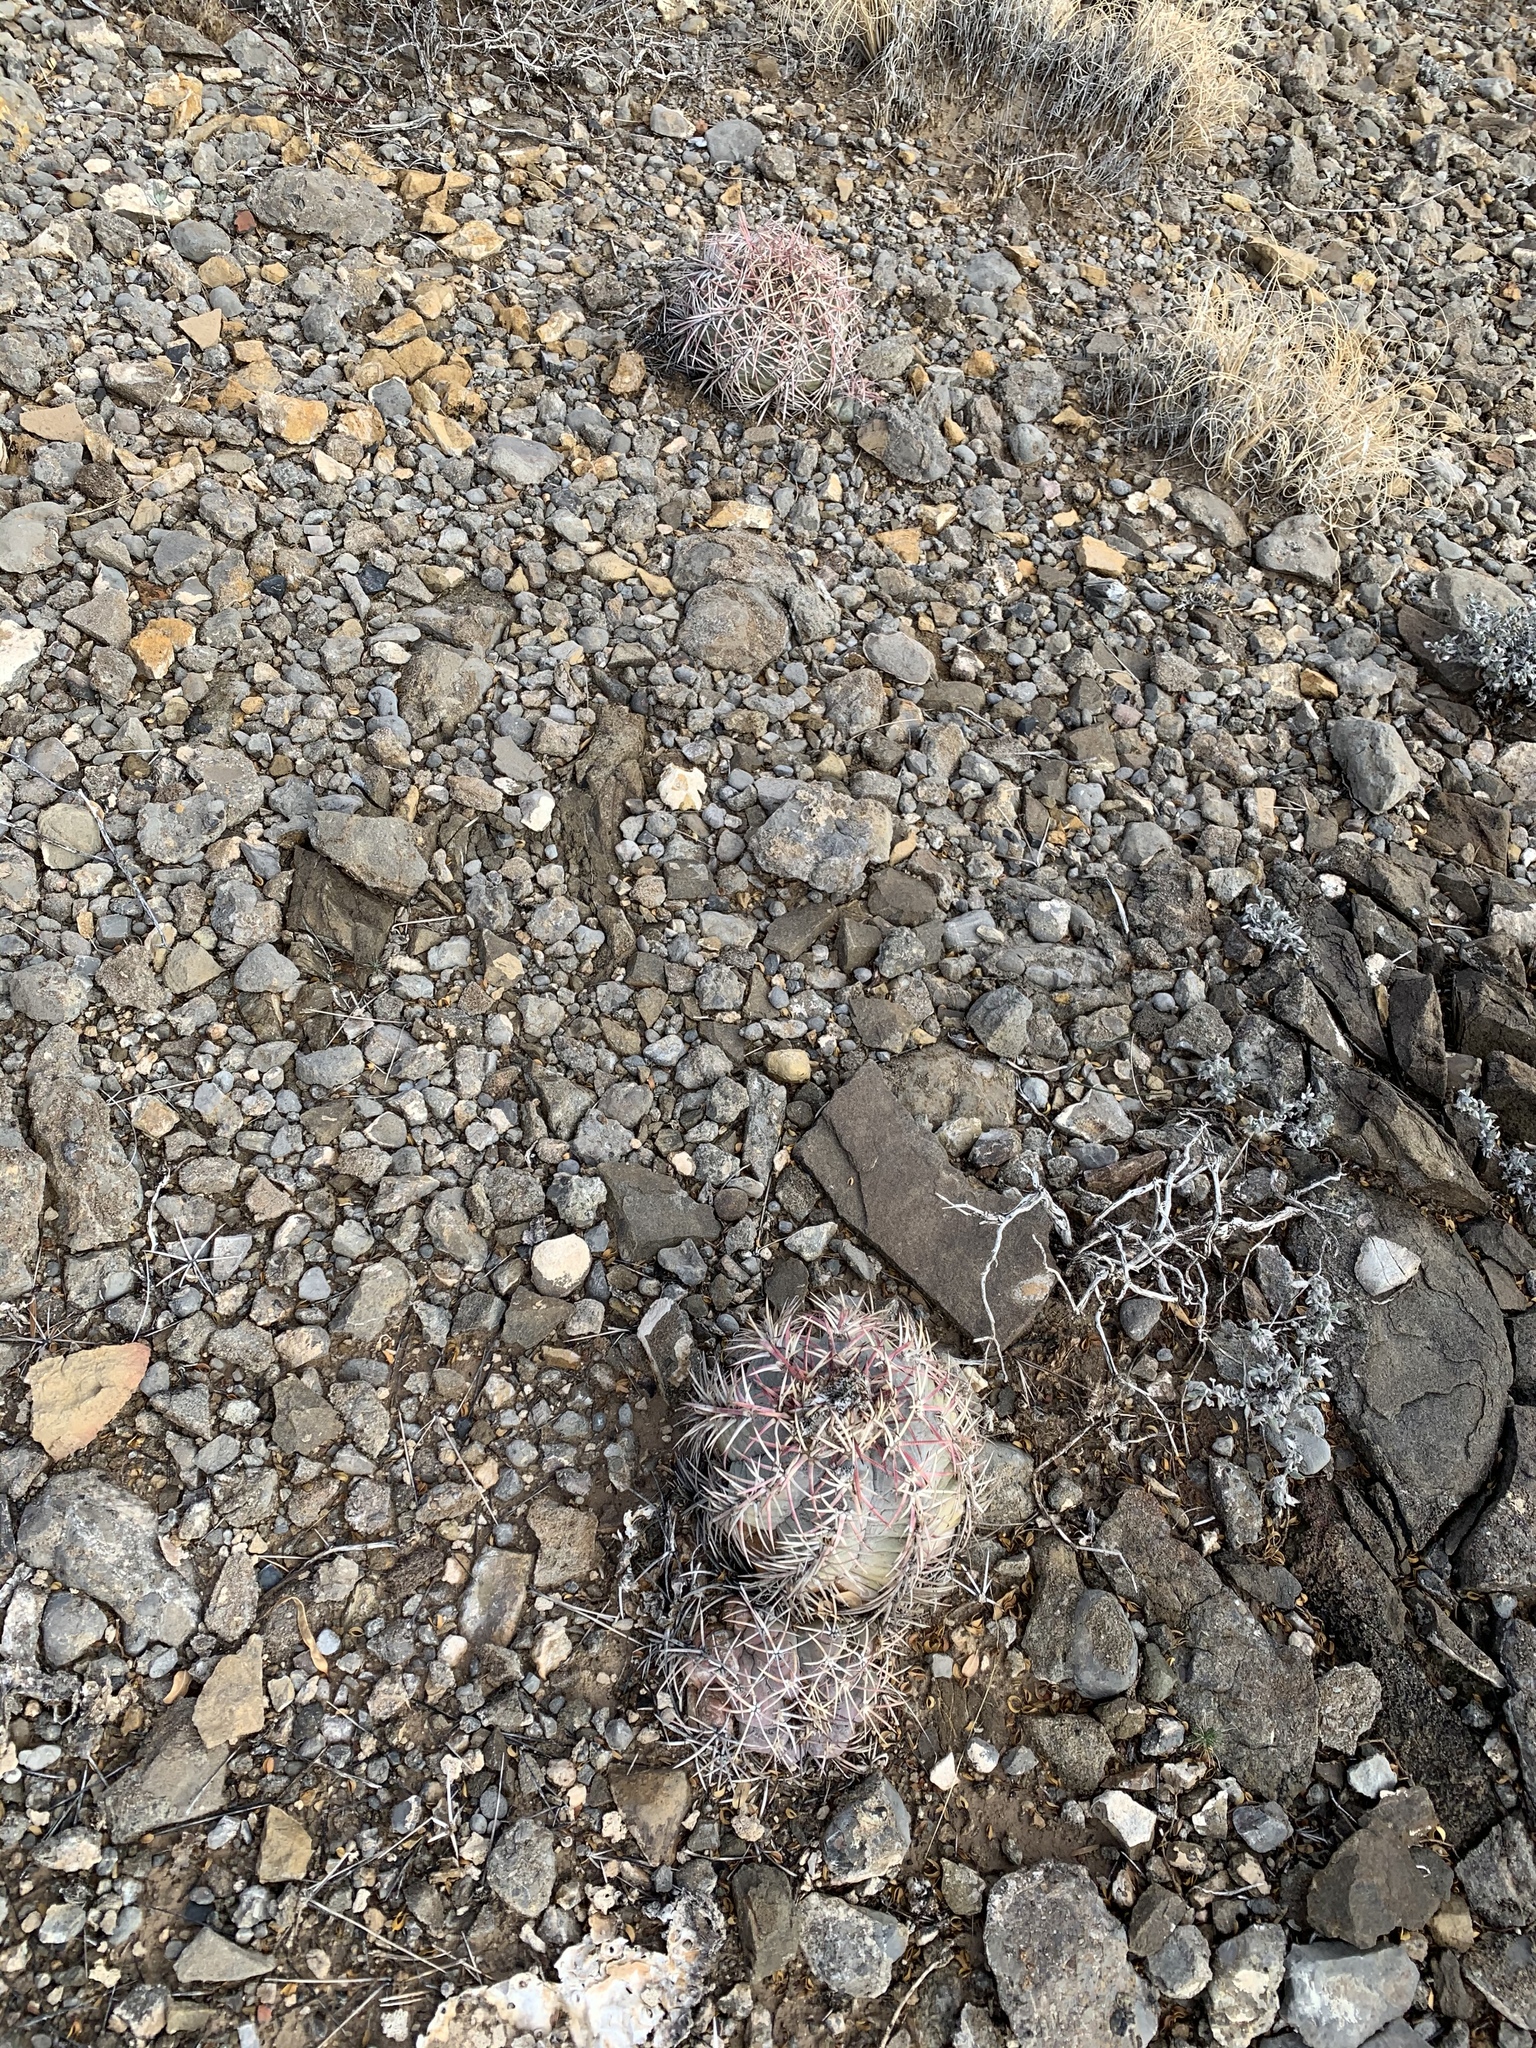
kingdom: Plantae
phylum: Tracheophyta
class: Magnoliopsida
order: Caryophyllales
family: Cactaceae
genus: Echinocactus
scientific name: Echinocactus horizonthalonius
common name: Devilshead
